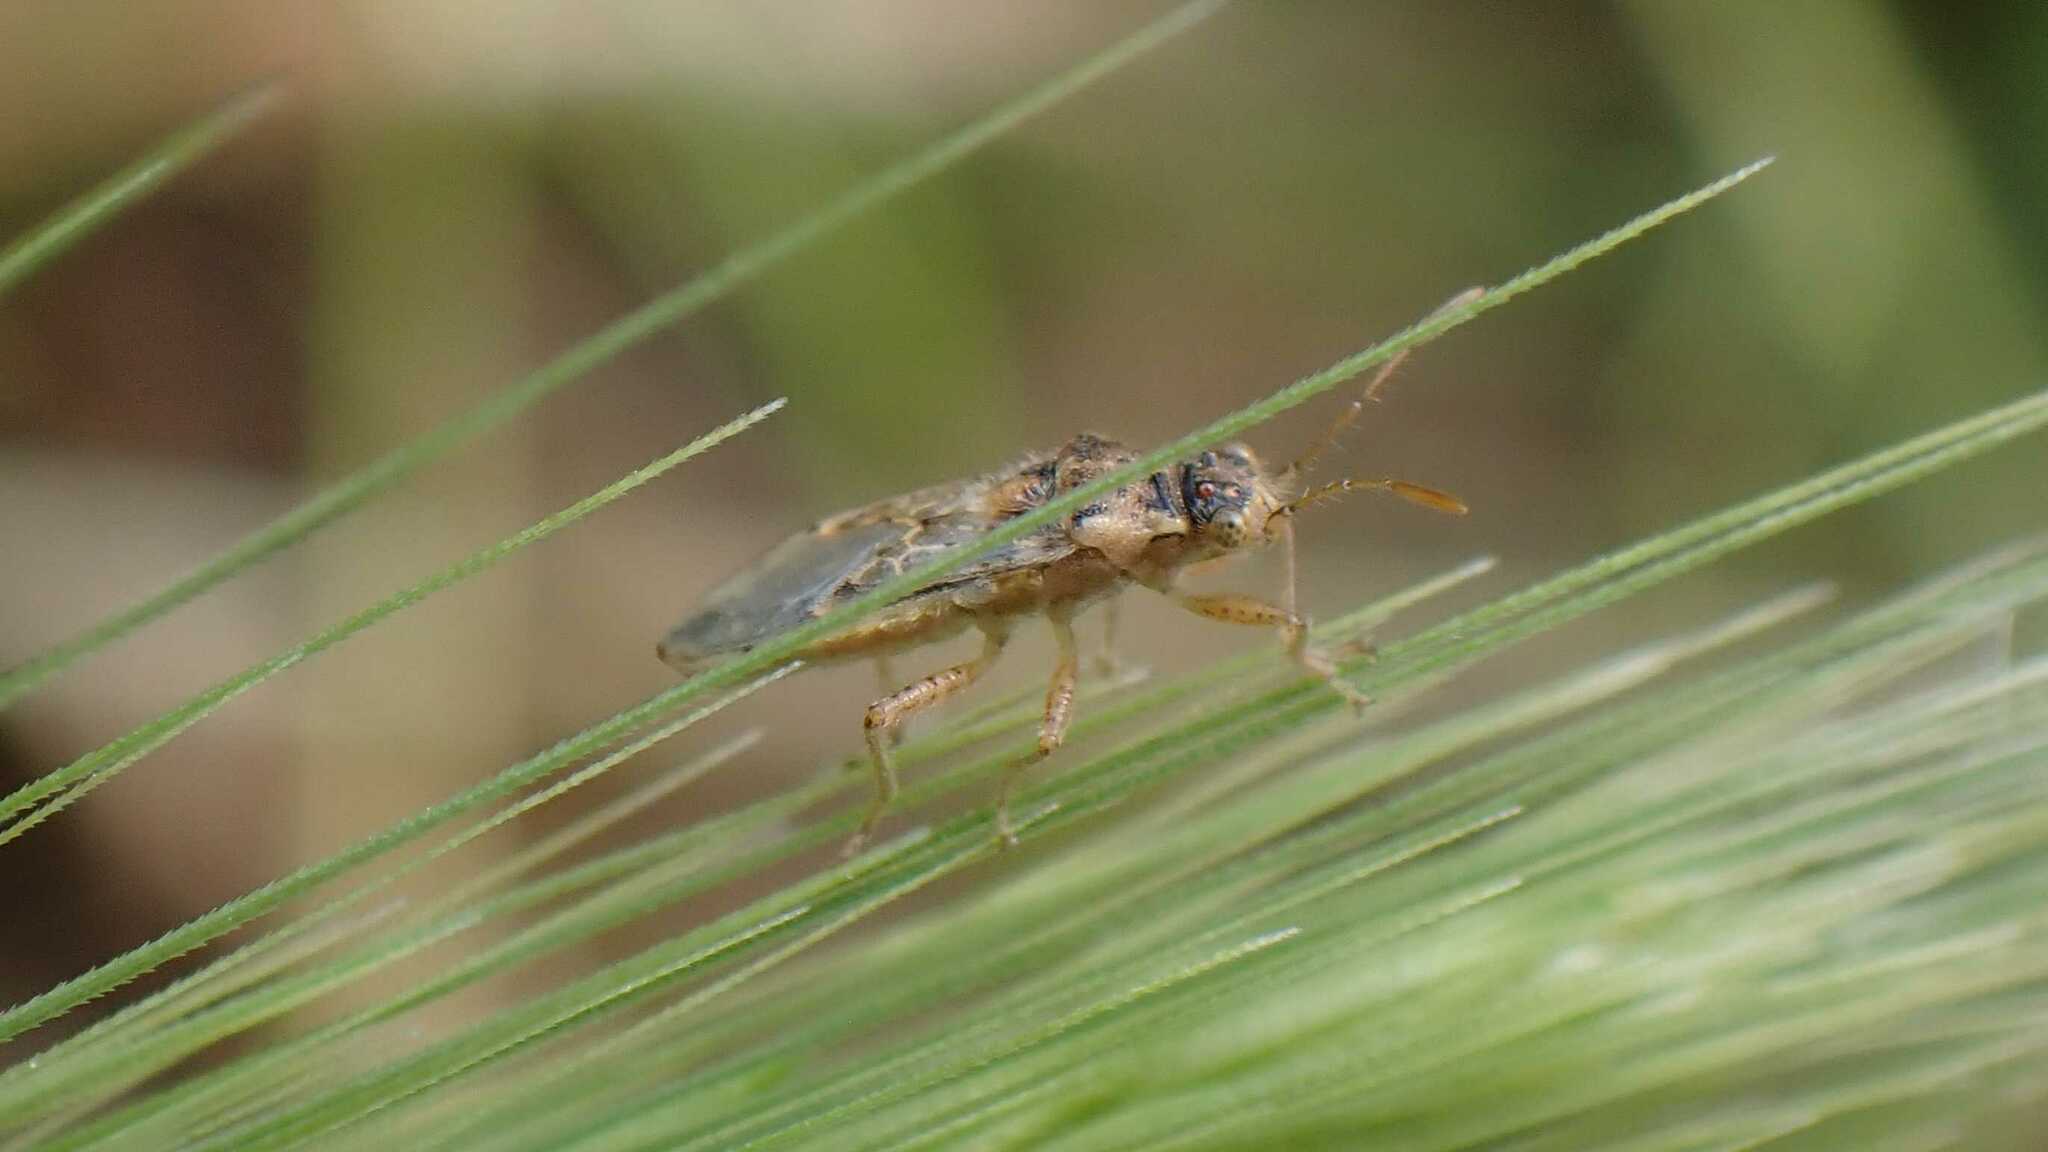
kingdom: Animalia
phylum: Arthropoda
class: Insecta
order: Hemiptera
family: Rhopalidae
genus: Brachycarenus
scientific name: Brachycarenus tigrinus
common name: Scentless plant bug
